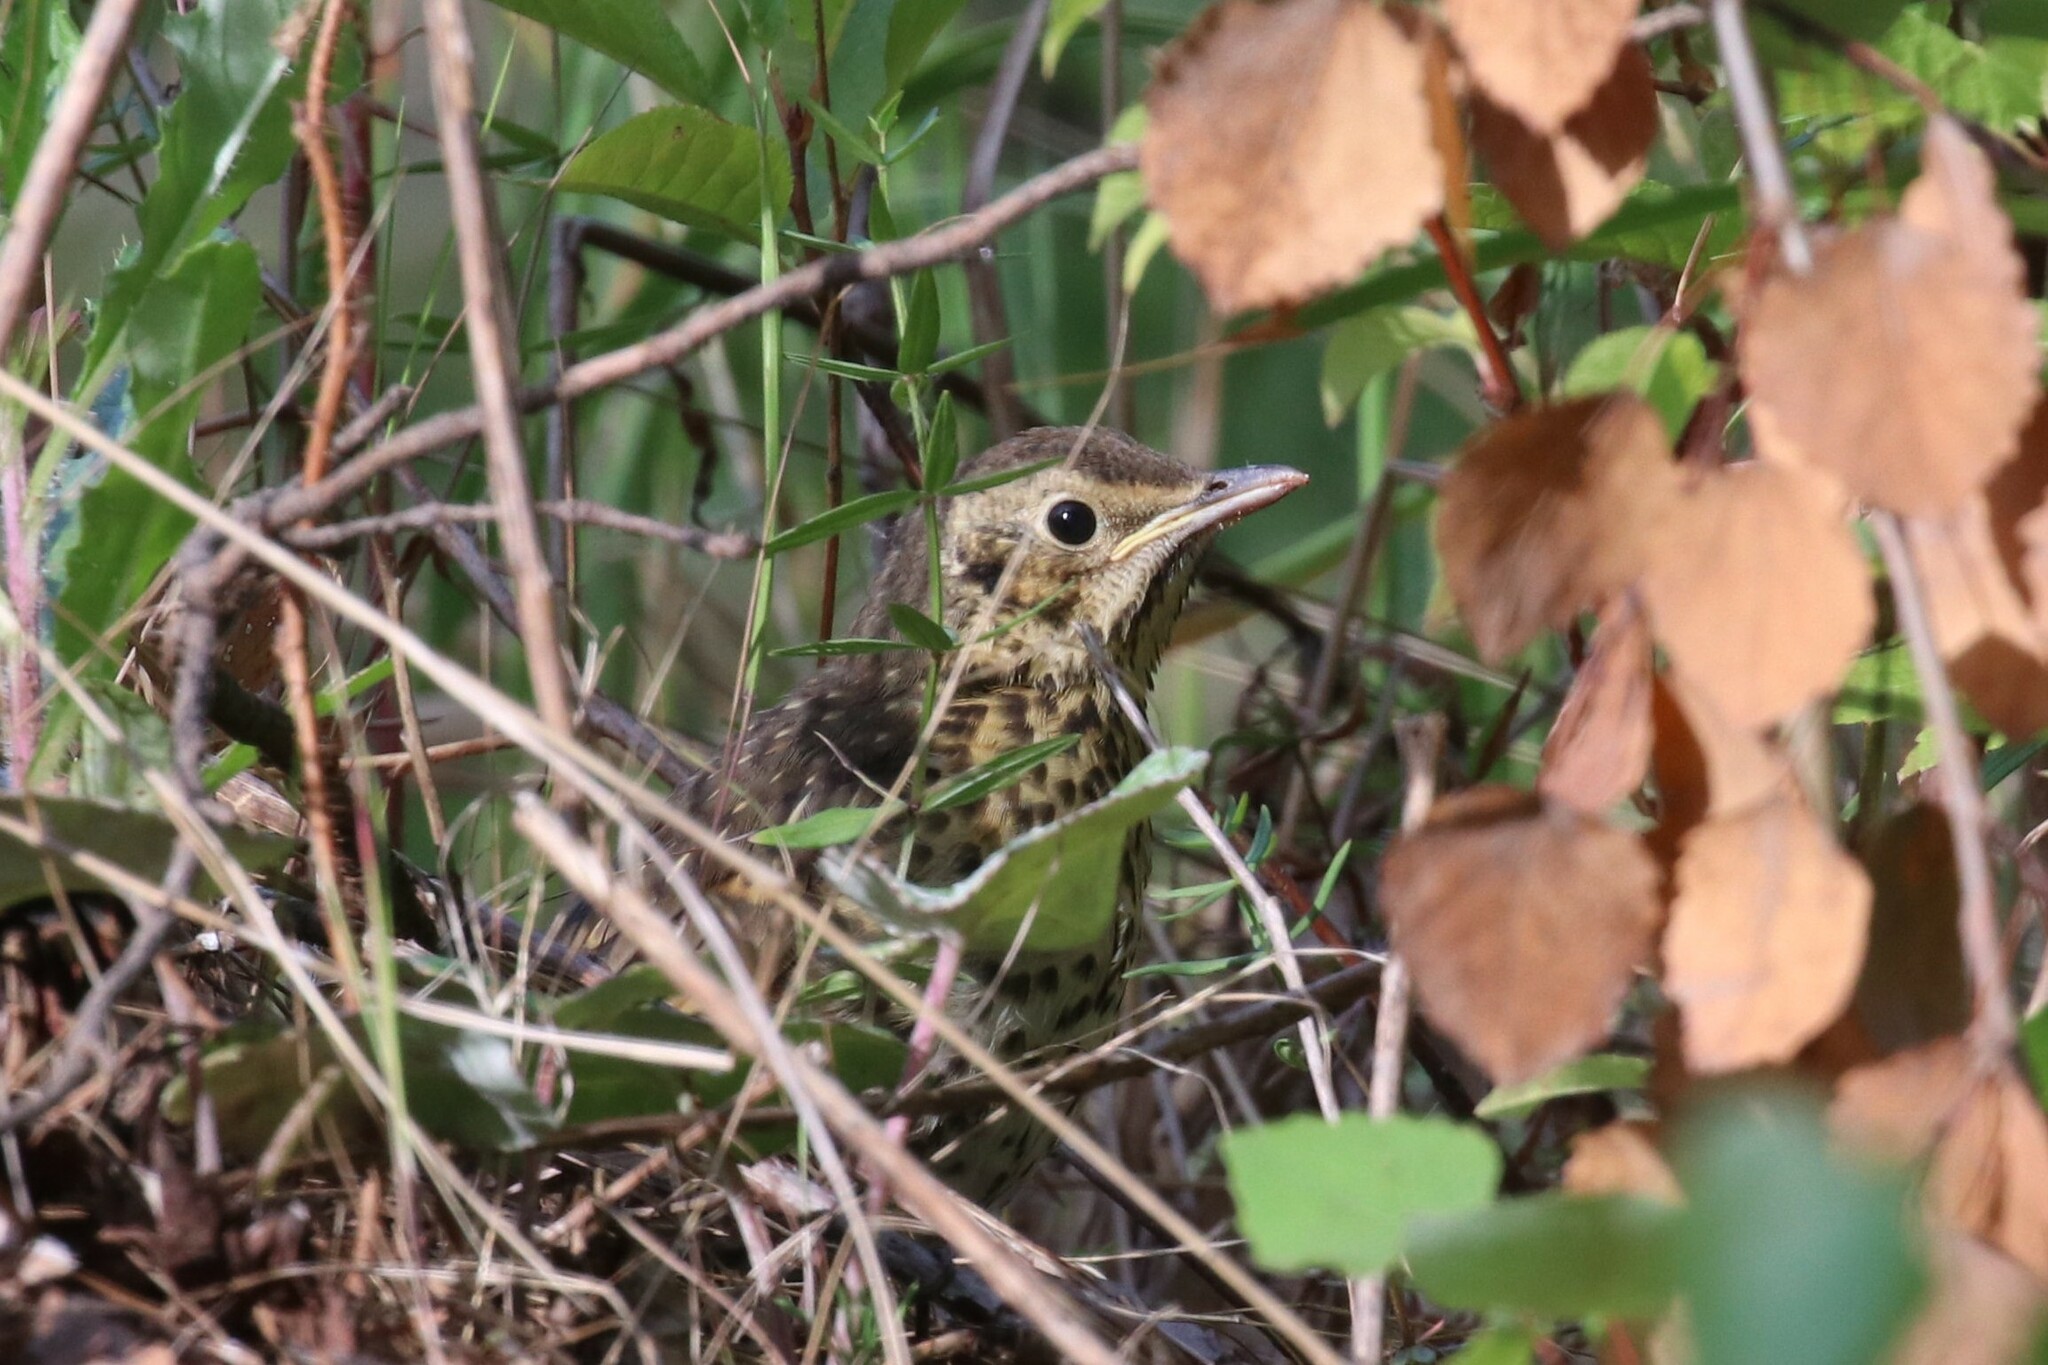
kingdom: Animalia
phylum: Chordata
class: Aves
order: Passeriformes
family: Turdidae
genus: Turdus
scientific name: Turdus philomelos
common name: Song thrush
